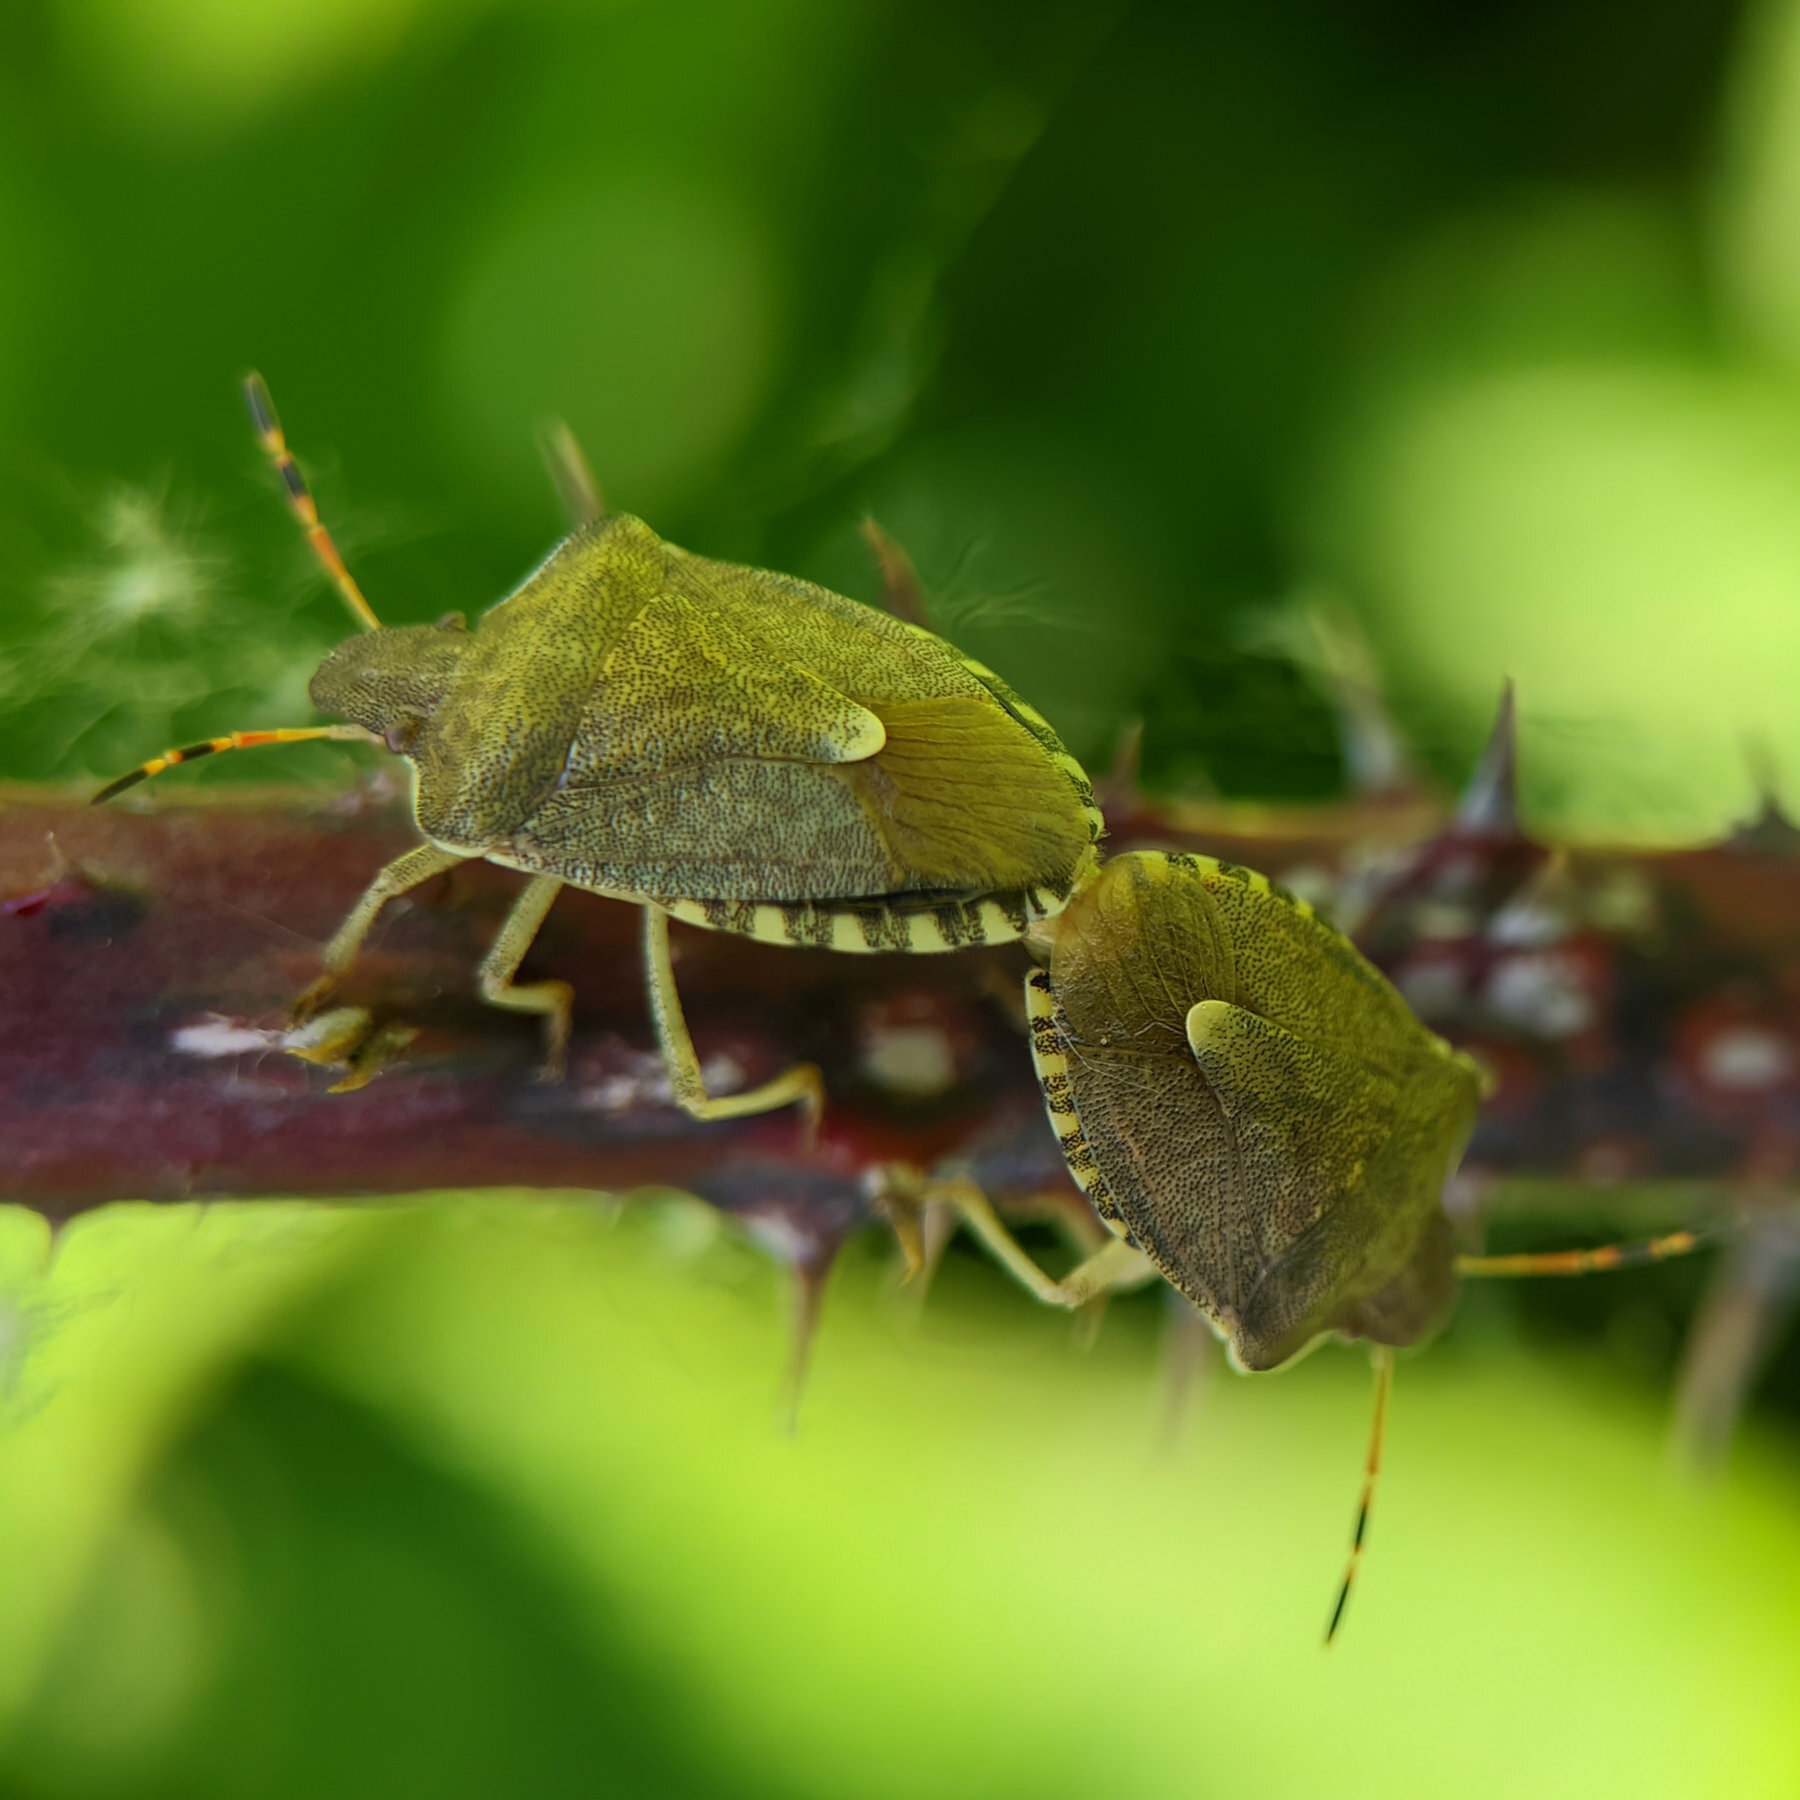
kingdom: Animalia
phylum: Arthropoda
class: Insecta
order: Hemiptera
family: Pentatomidae
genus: Holcostethus
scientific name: Holcostethus strictus
